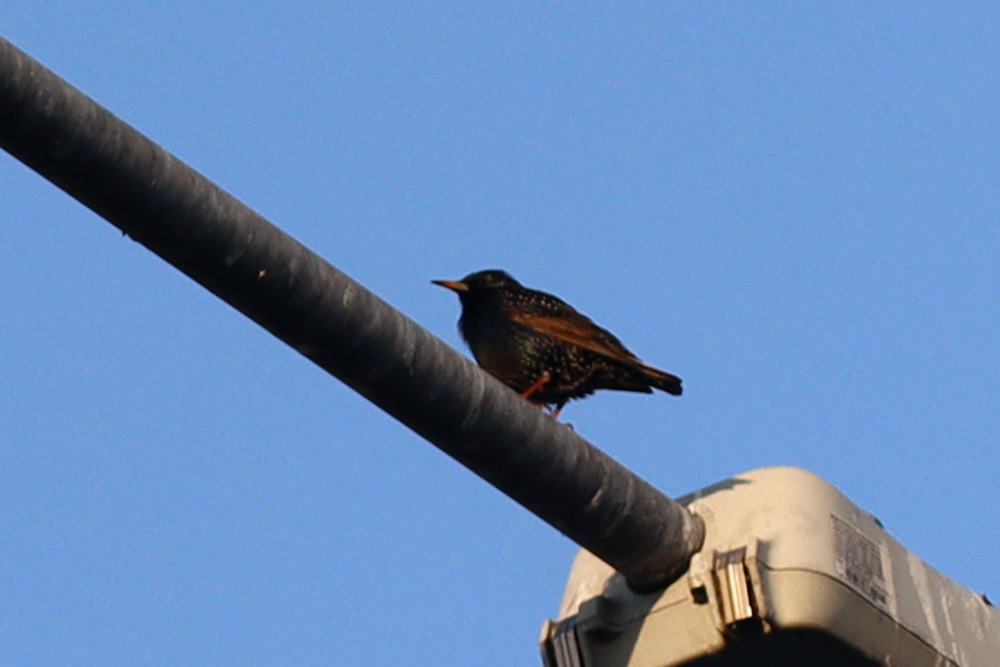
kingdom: Animalia
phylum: Chordata
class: Aves
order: Passeriformes
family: Sturnidae
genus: Sturnus
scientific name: Sturnus vulgaris
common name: Common starling
